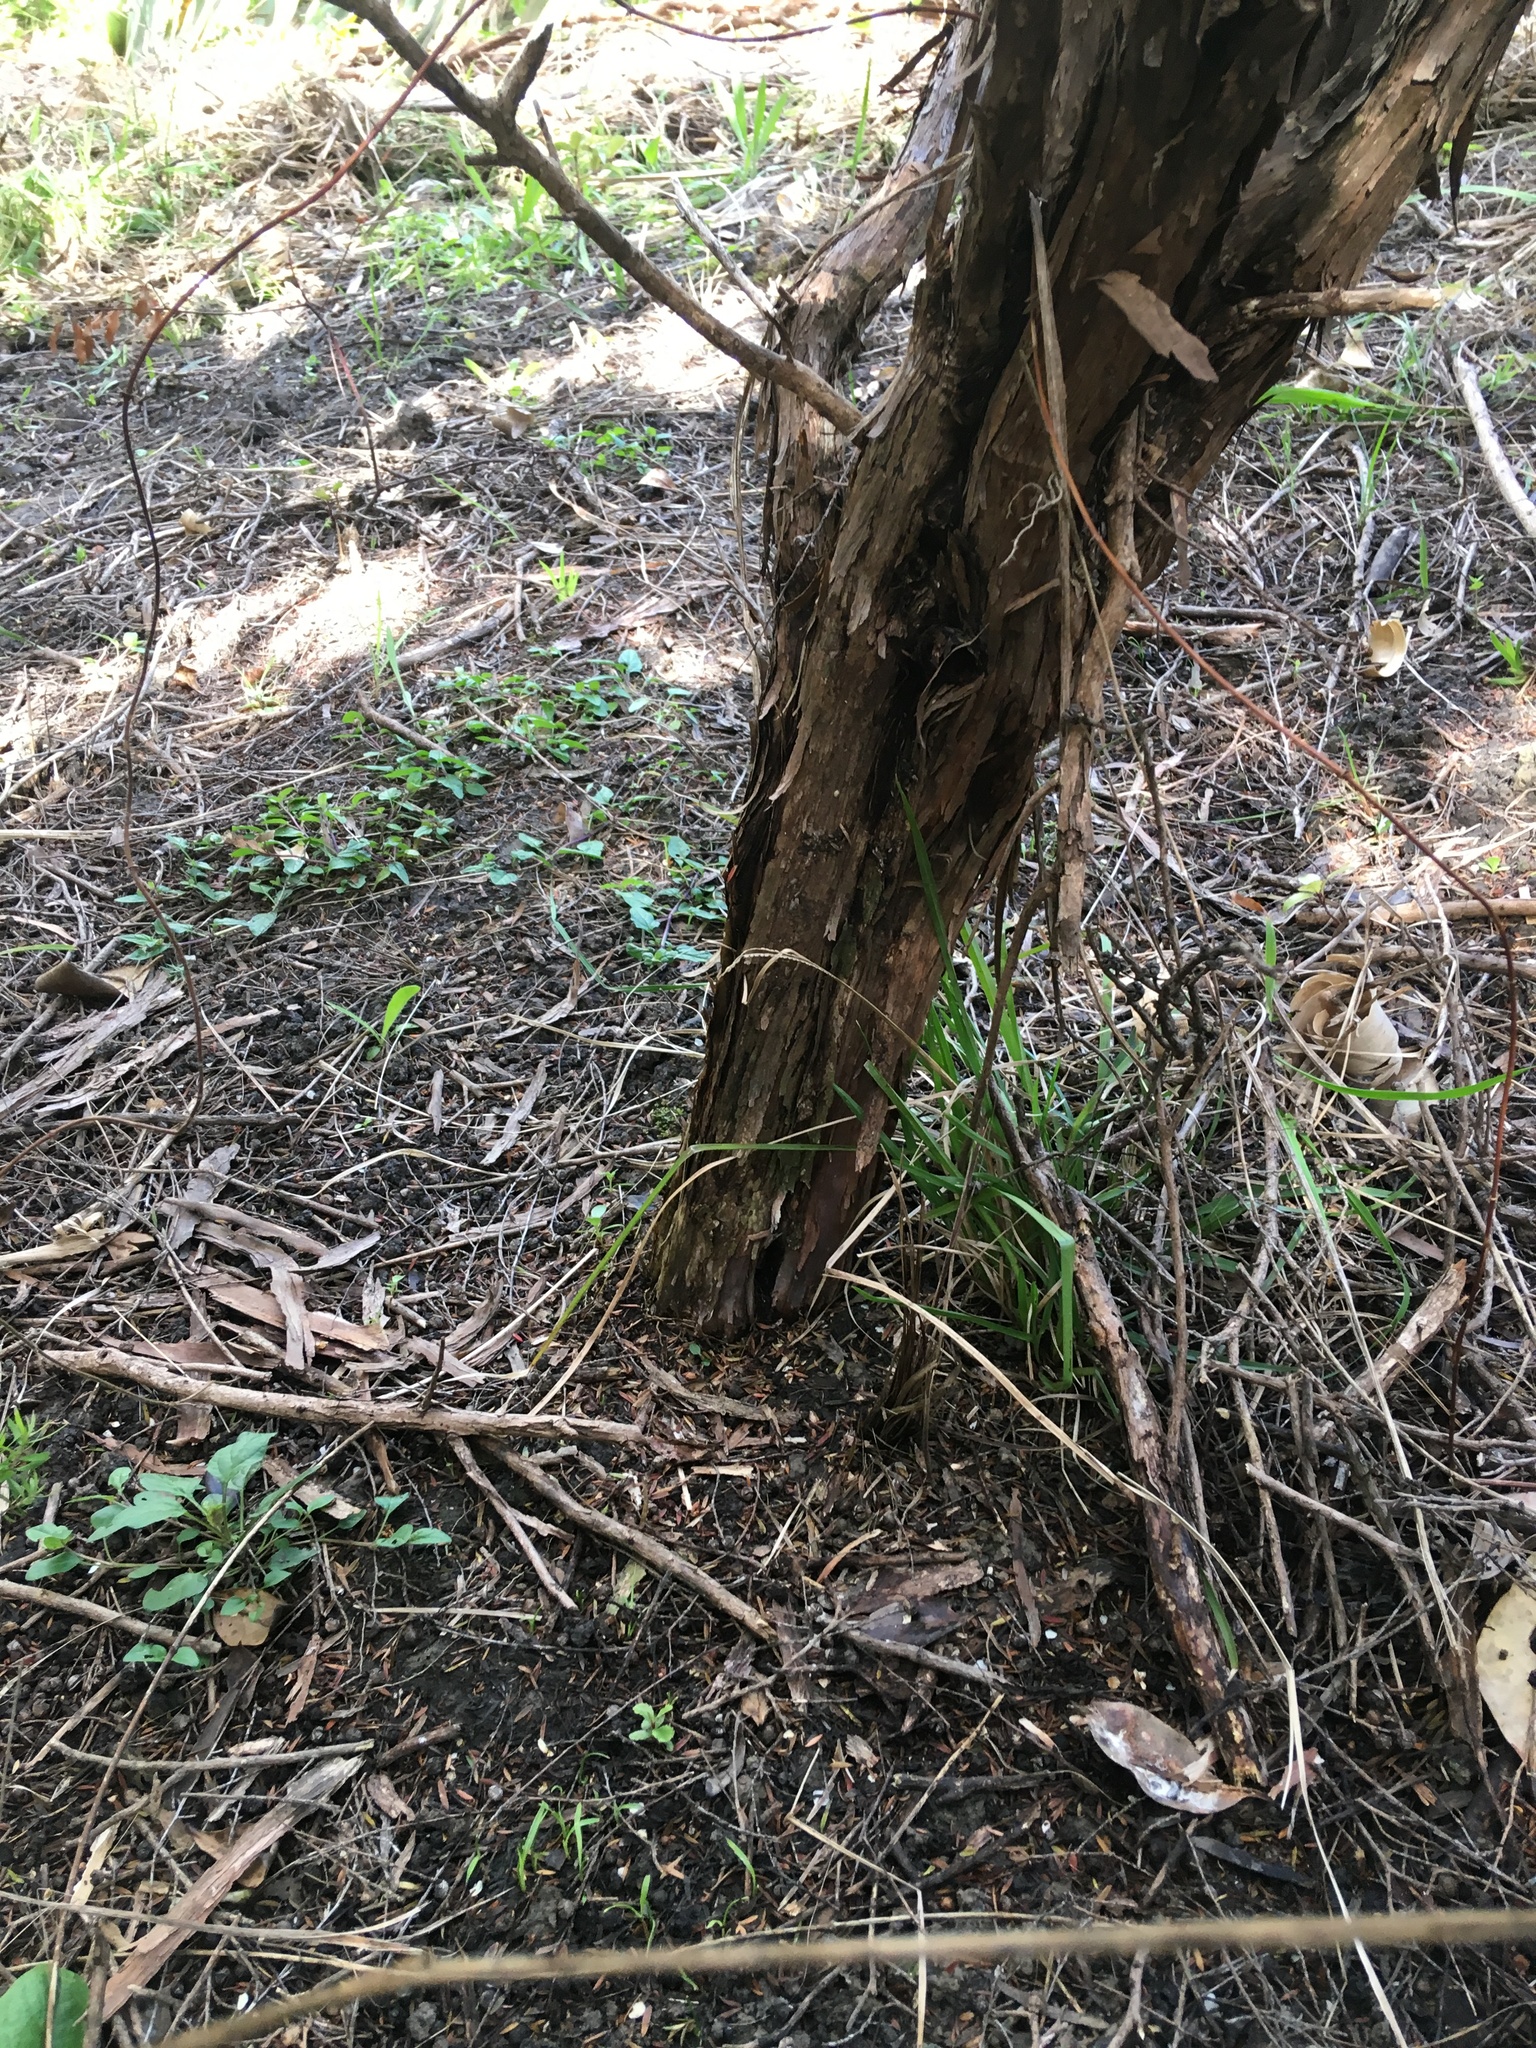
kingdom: Plantae
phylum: Tracheophyta
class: Magnoliopsida
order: Lamiales
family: Lamiaceae
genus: Prunella
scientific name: Prunella vulgaris
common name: Heal-all
